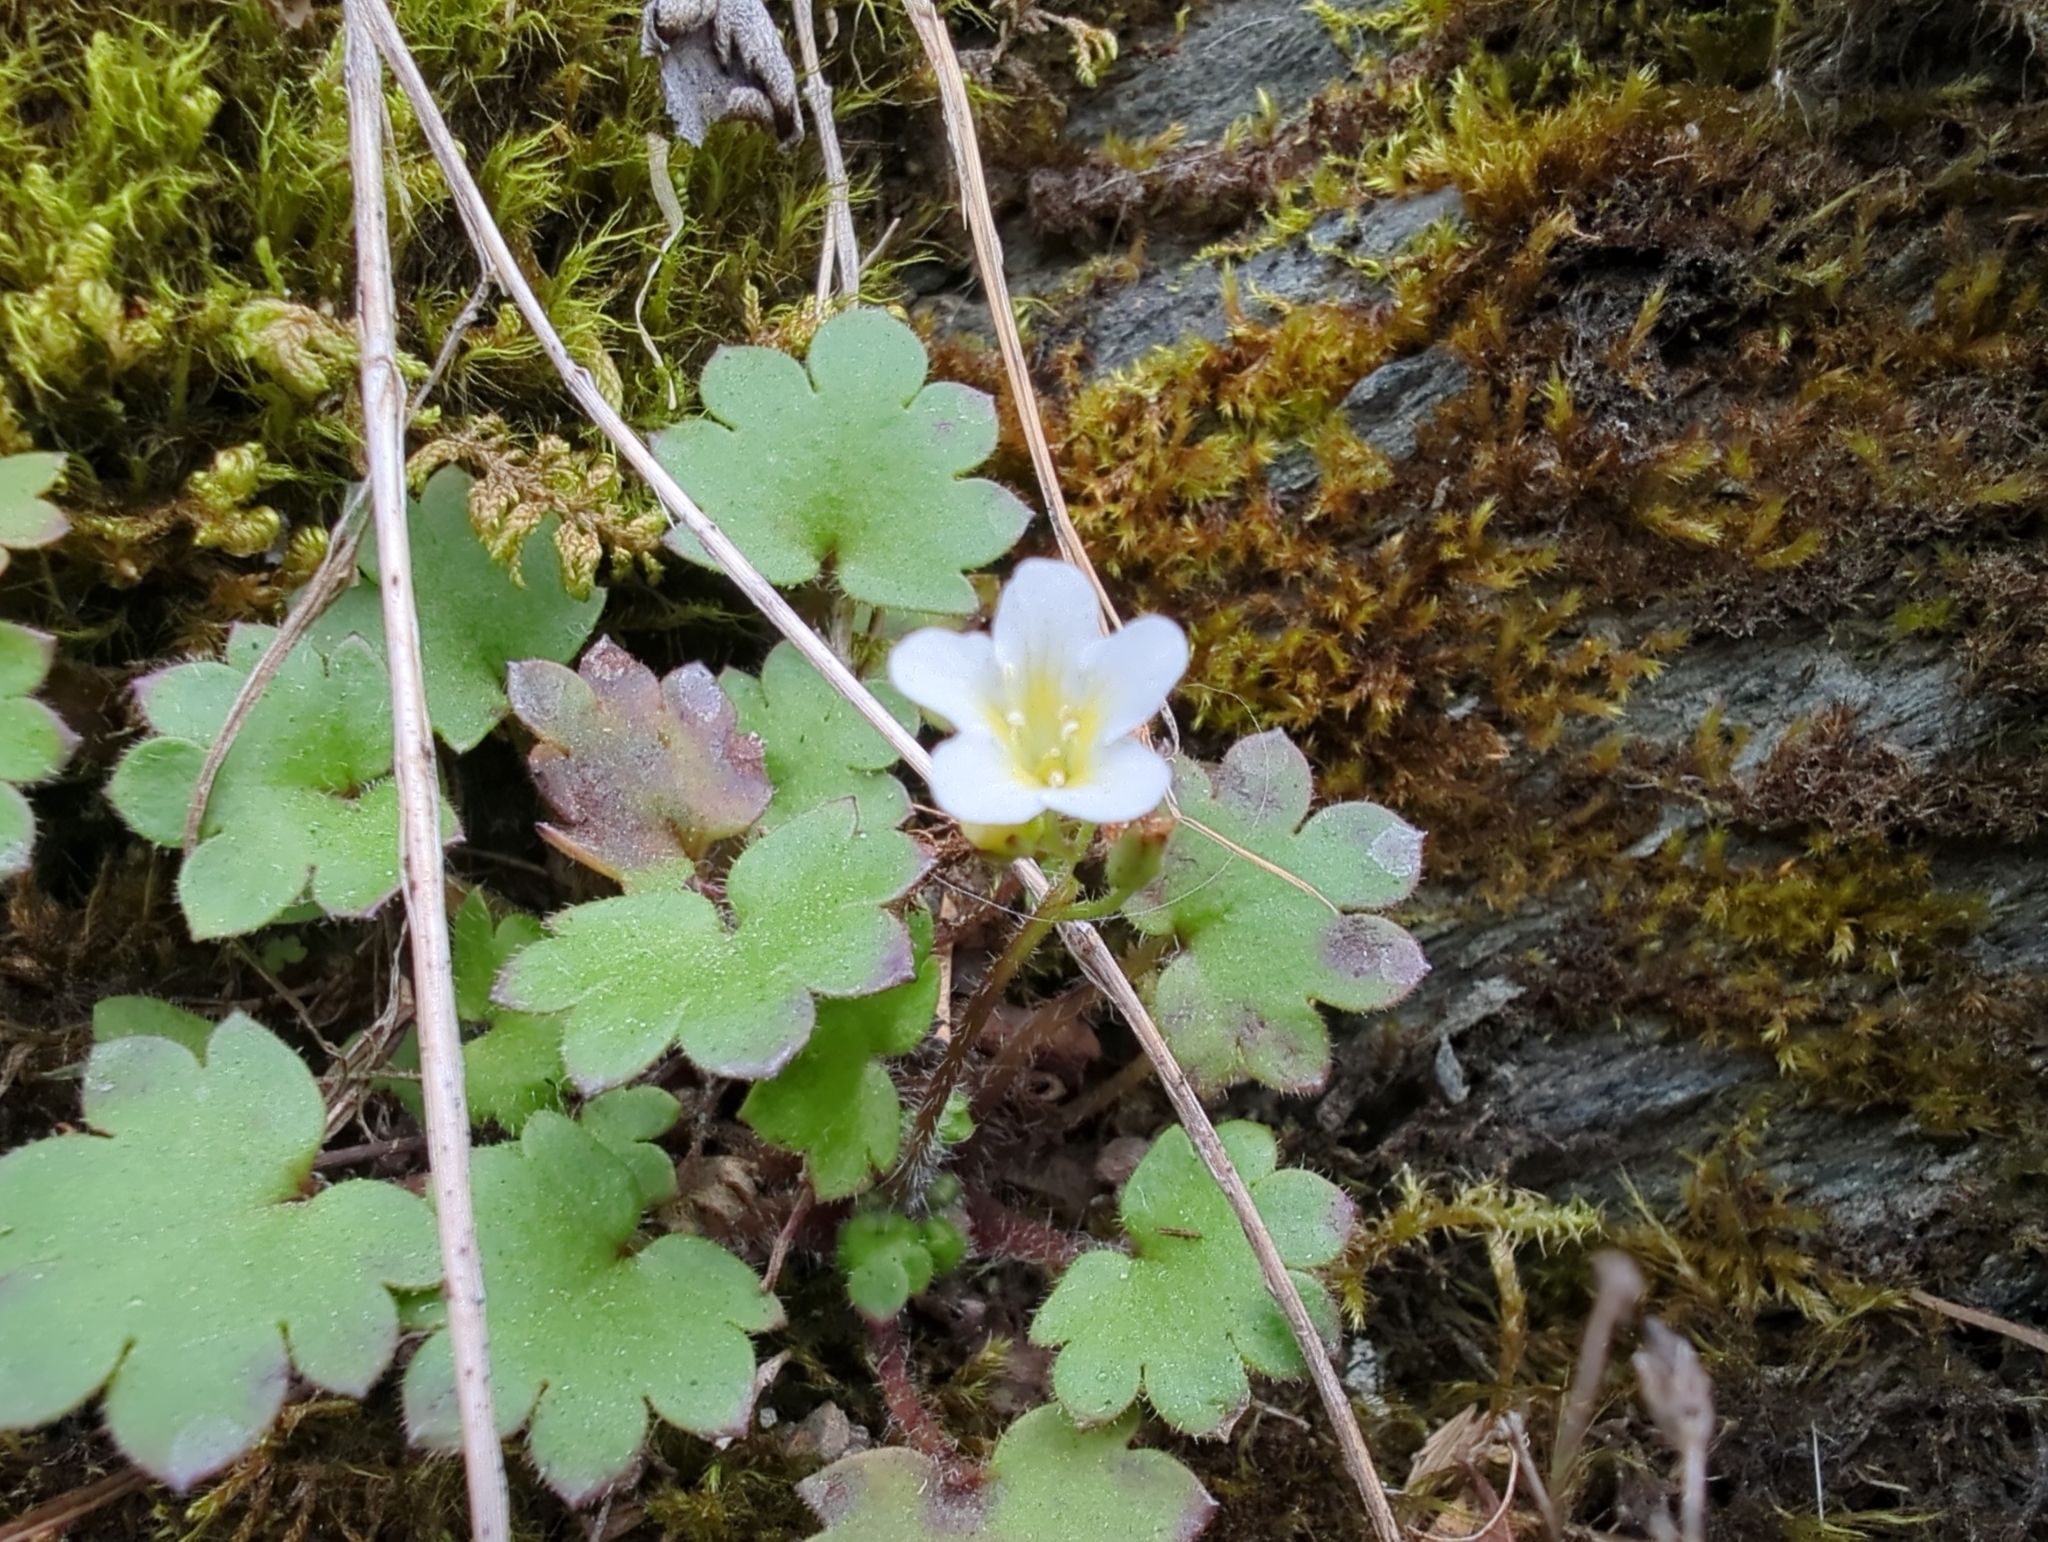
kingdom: Plantae
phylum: Tracheophyta
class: Magnoliopsida
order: Boraginales
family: Hydrophyllaceae
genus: Romanzoffia
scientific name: Romanzoffia sitchensis
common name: Sitka mistmaid
